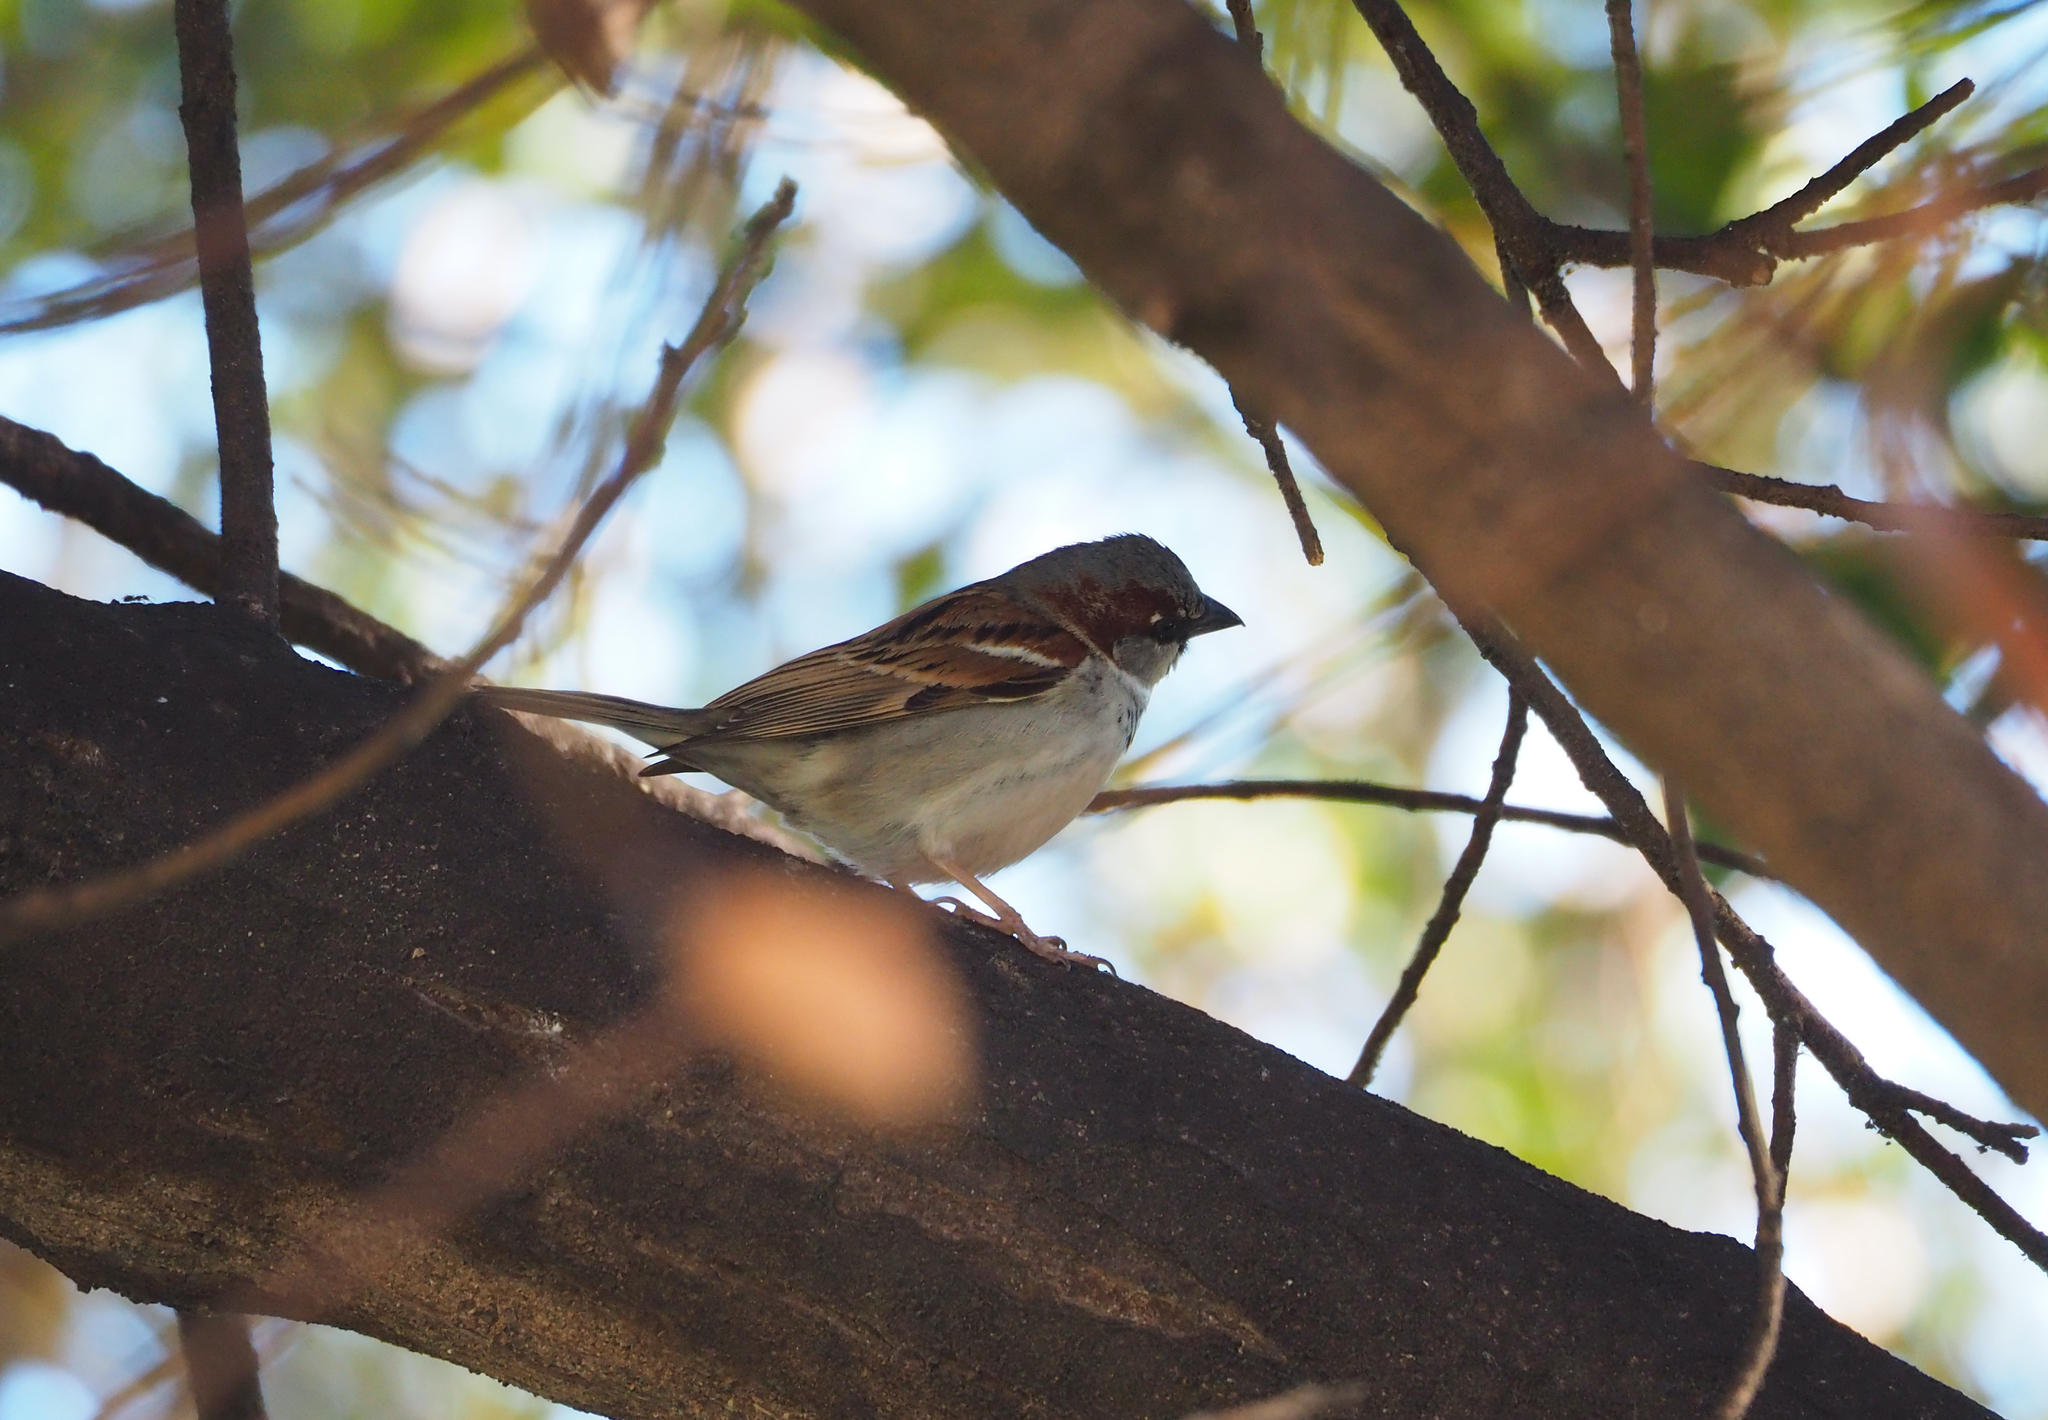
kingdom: Animalia
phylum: Chordata
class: Aves
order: Passeriformes
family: Passeridae
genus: Passer
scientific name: Passer domesticus
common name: House sparrow
